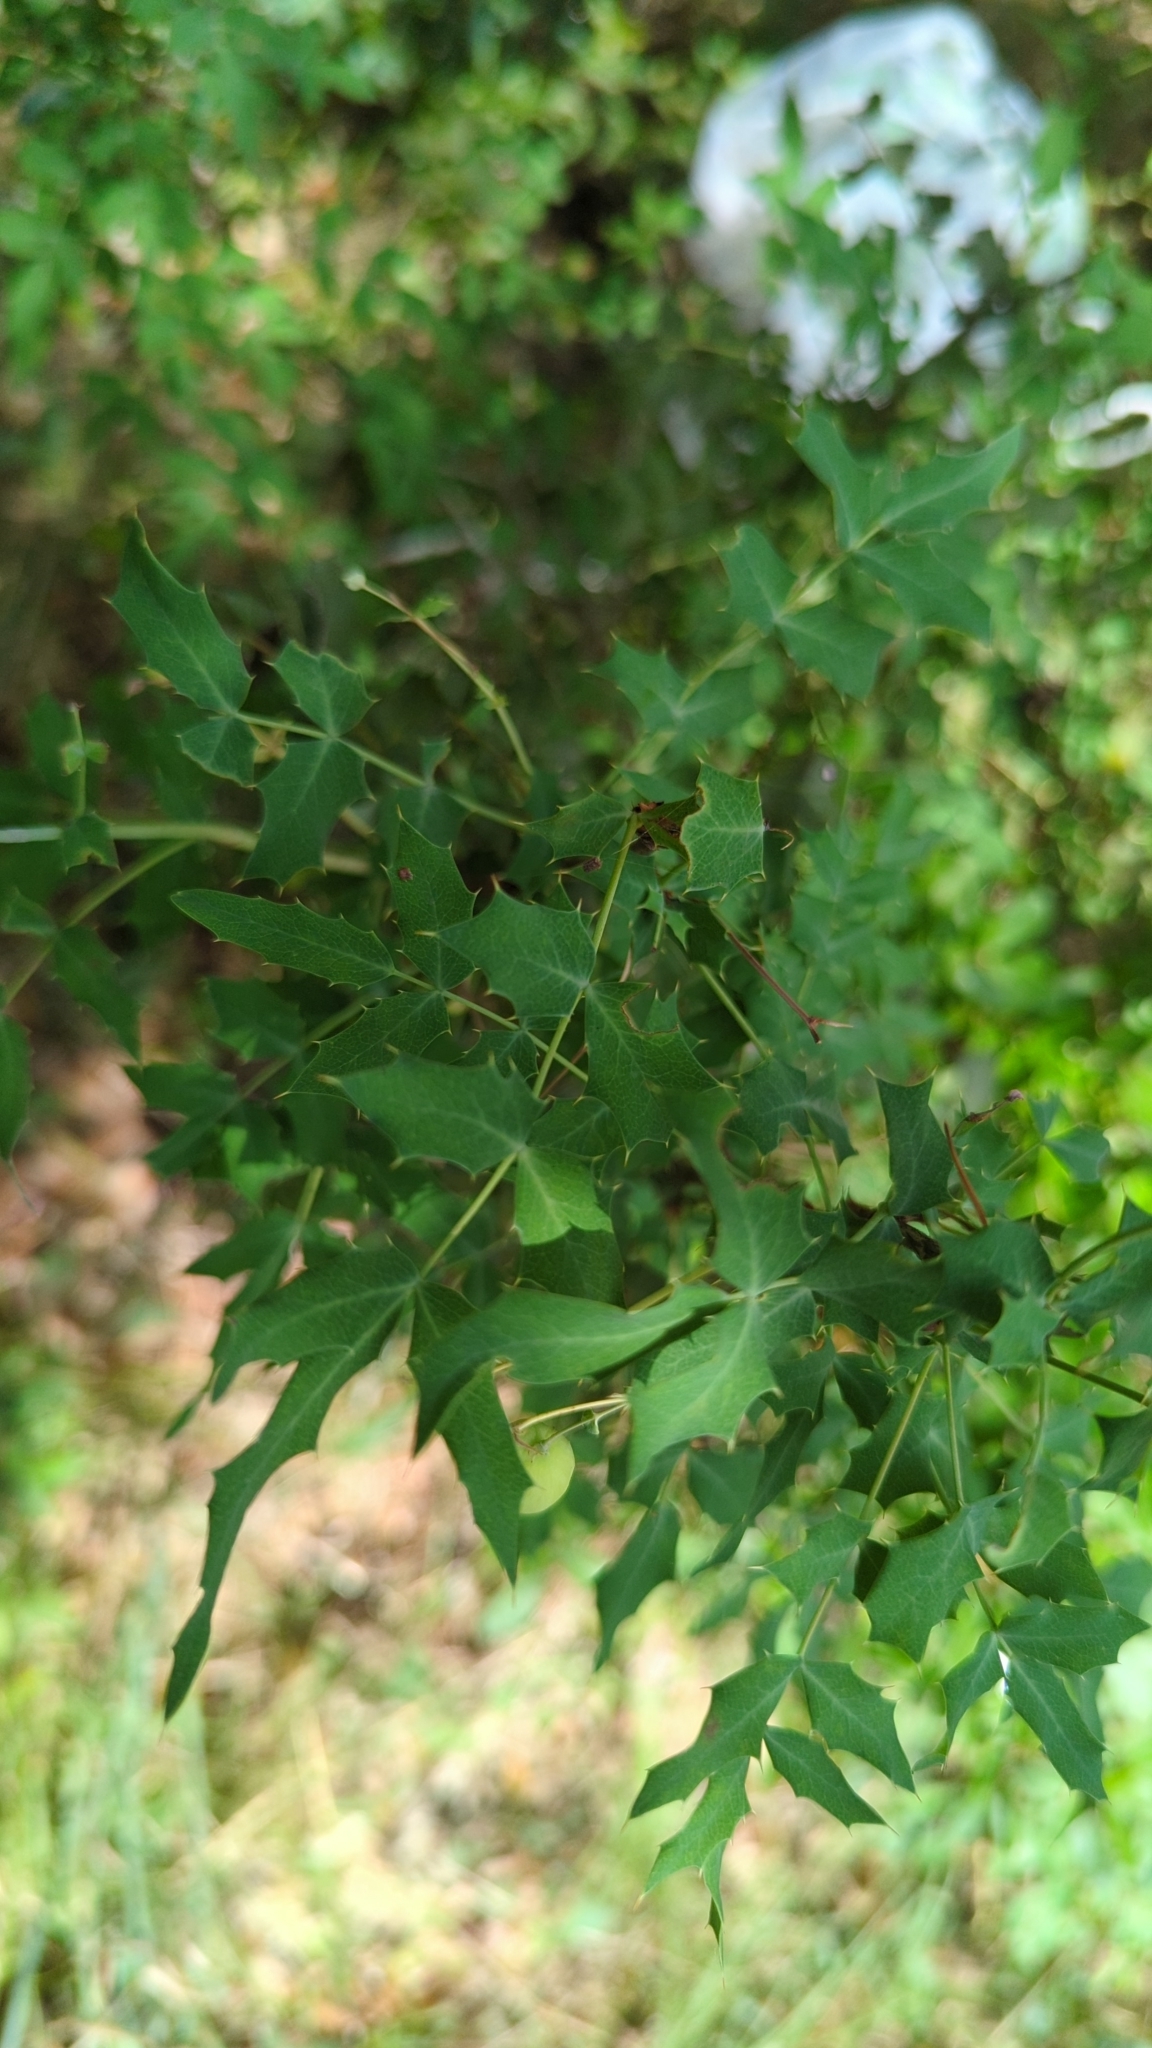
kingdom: Plantae
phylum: Tracheophyta
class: Magnoliopsida
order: Ranunculales
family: Berberidaceae
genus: Berberis
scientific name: Berberis swaseyi
